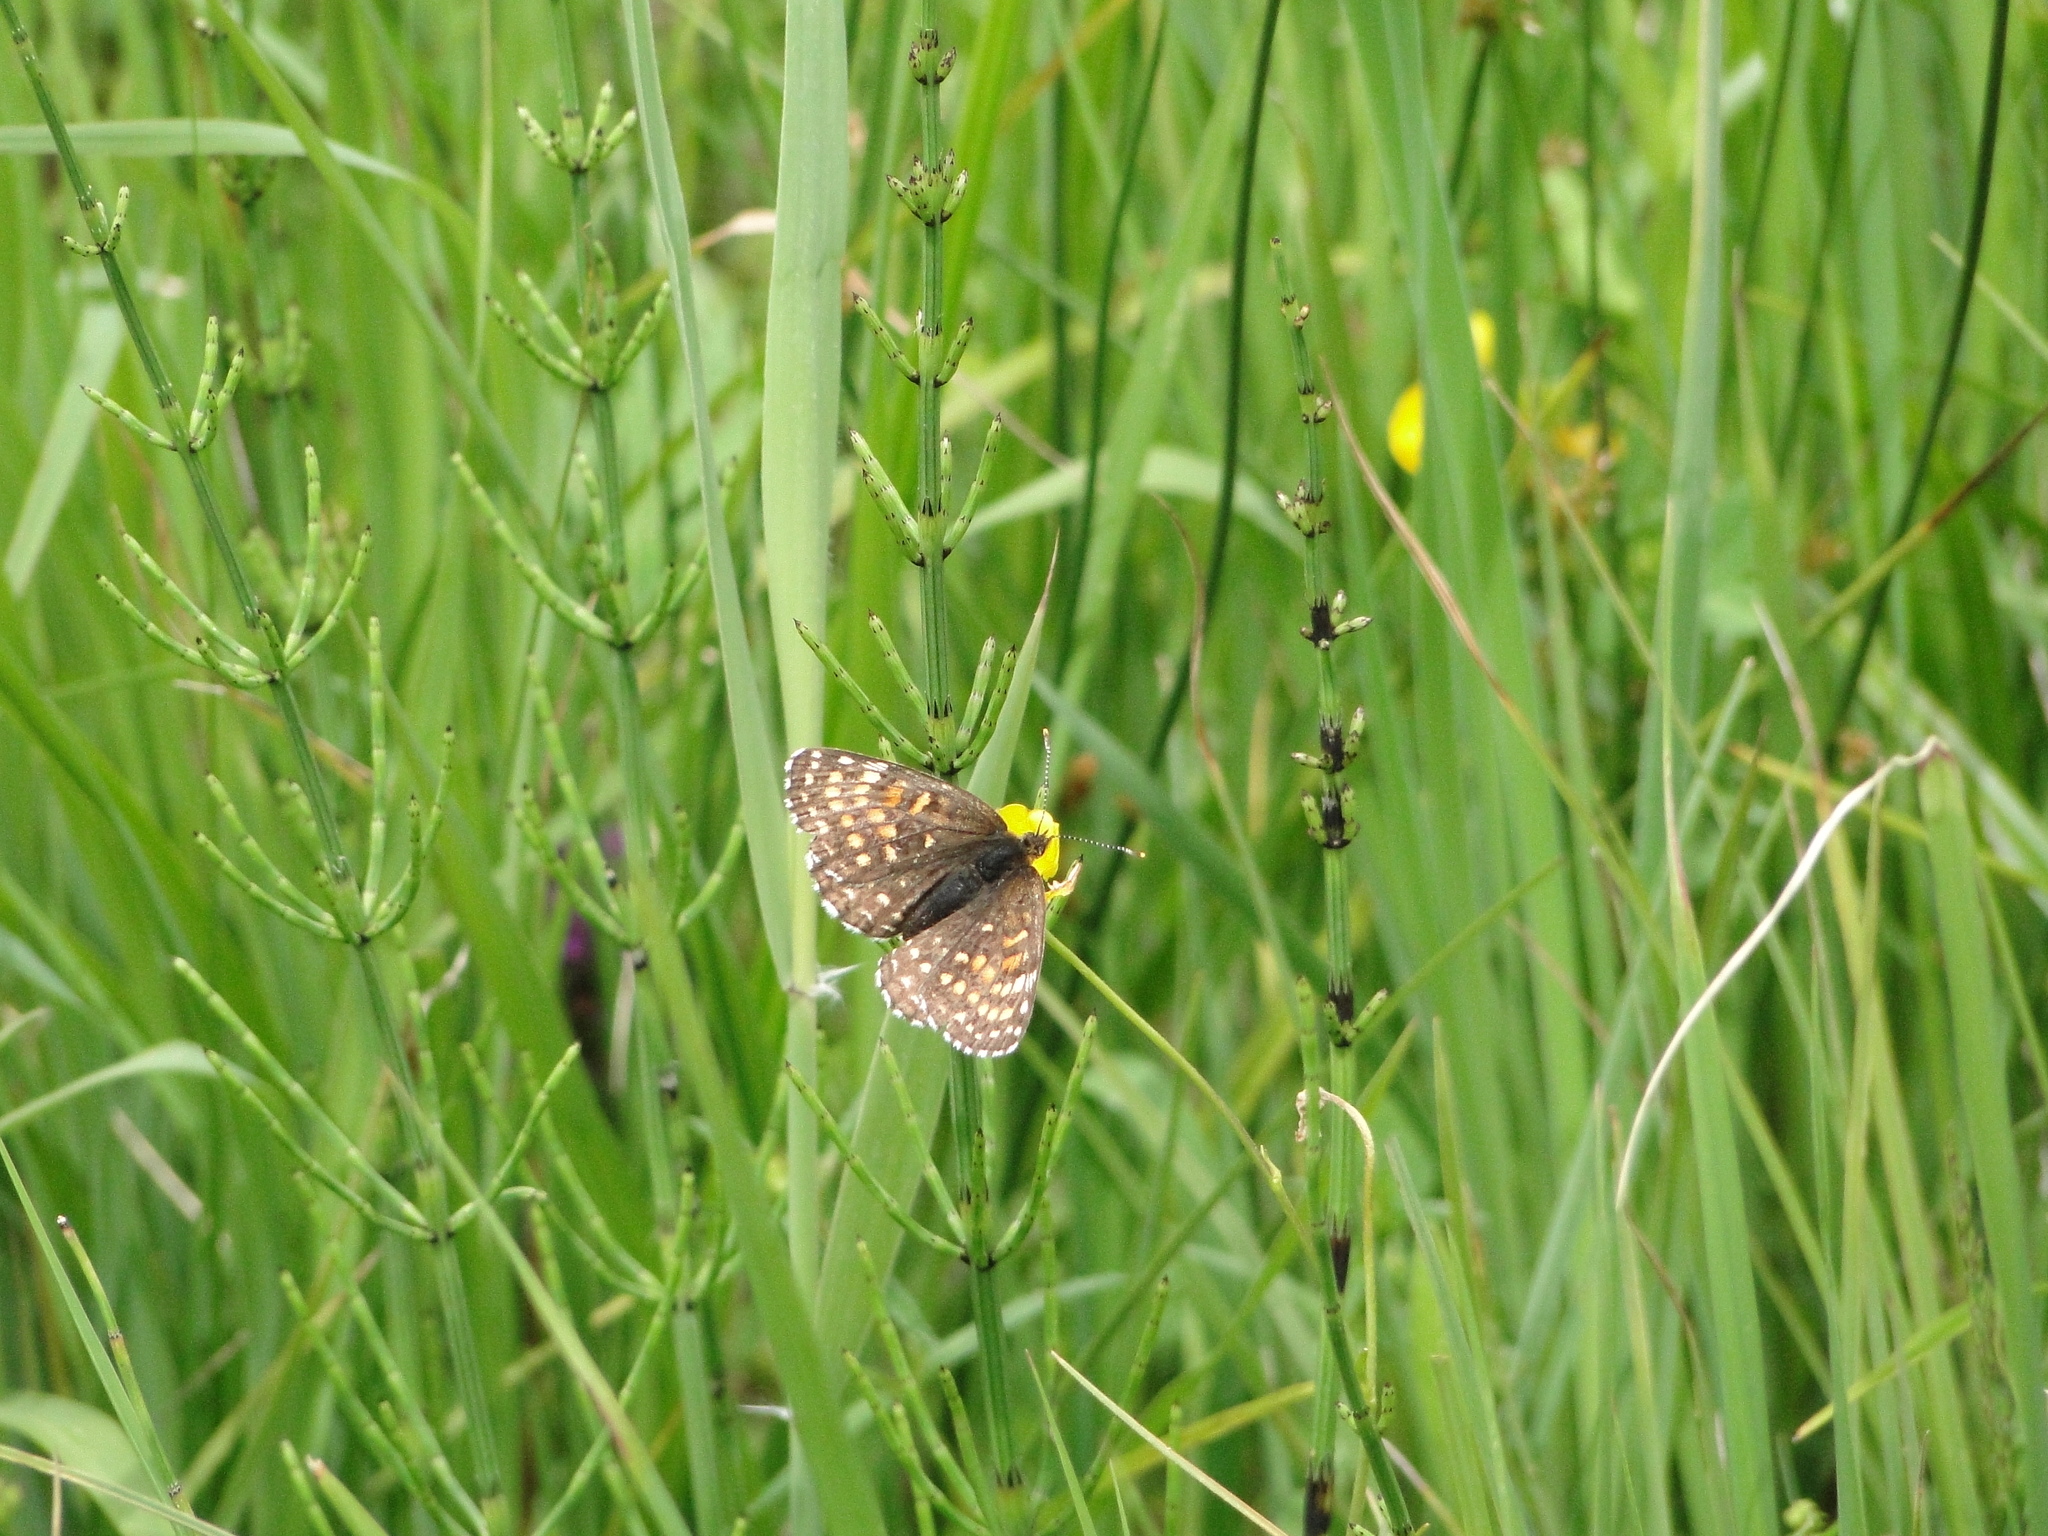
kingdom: Animalia
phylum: Arthropoda
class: Insecta
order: Lepidoptera
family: Nymphalidae
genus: Melitaea
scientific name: Melitaea diamina
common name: False heath fritillary
